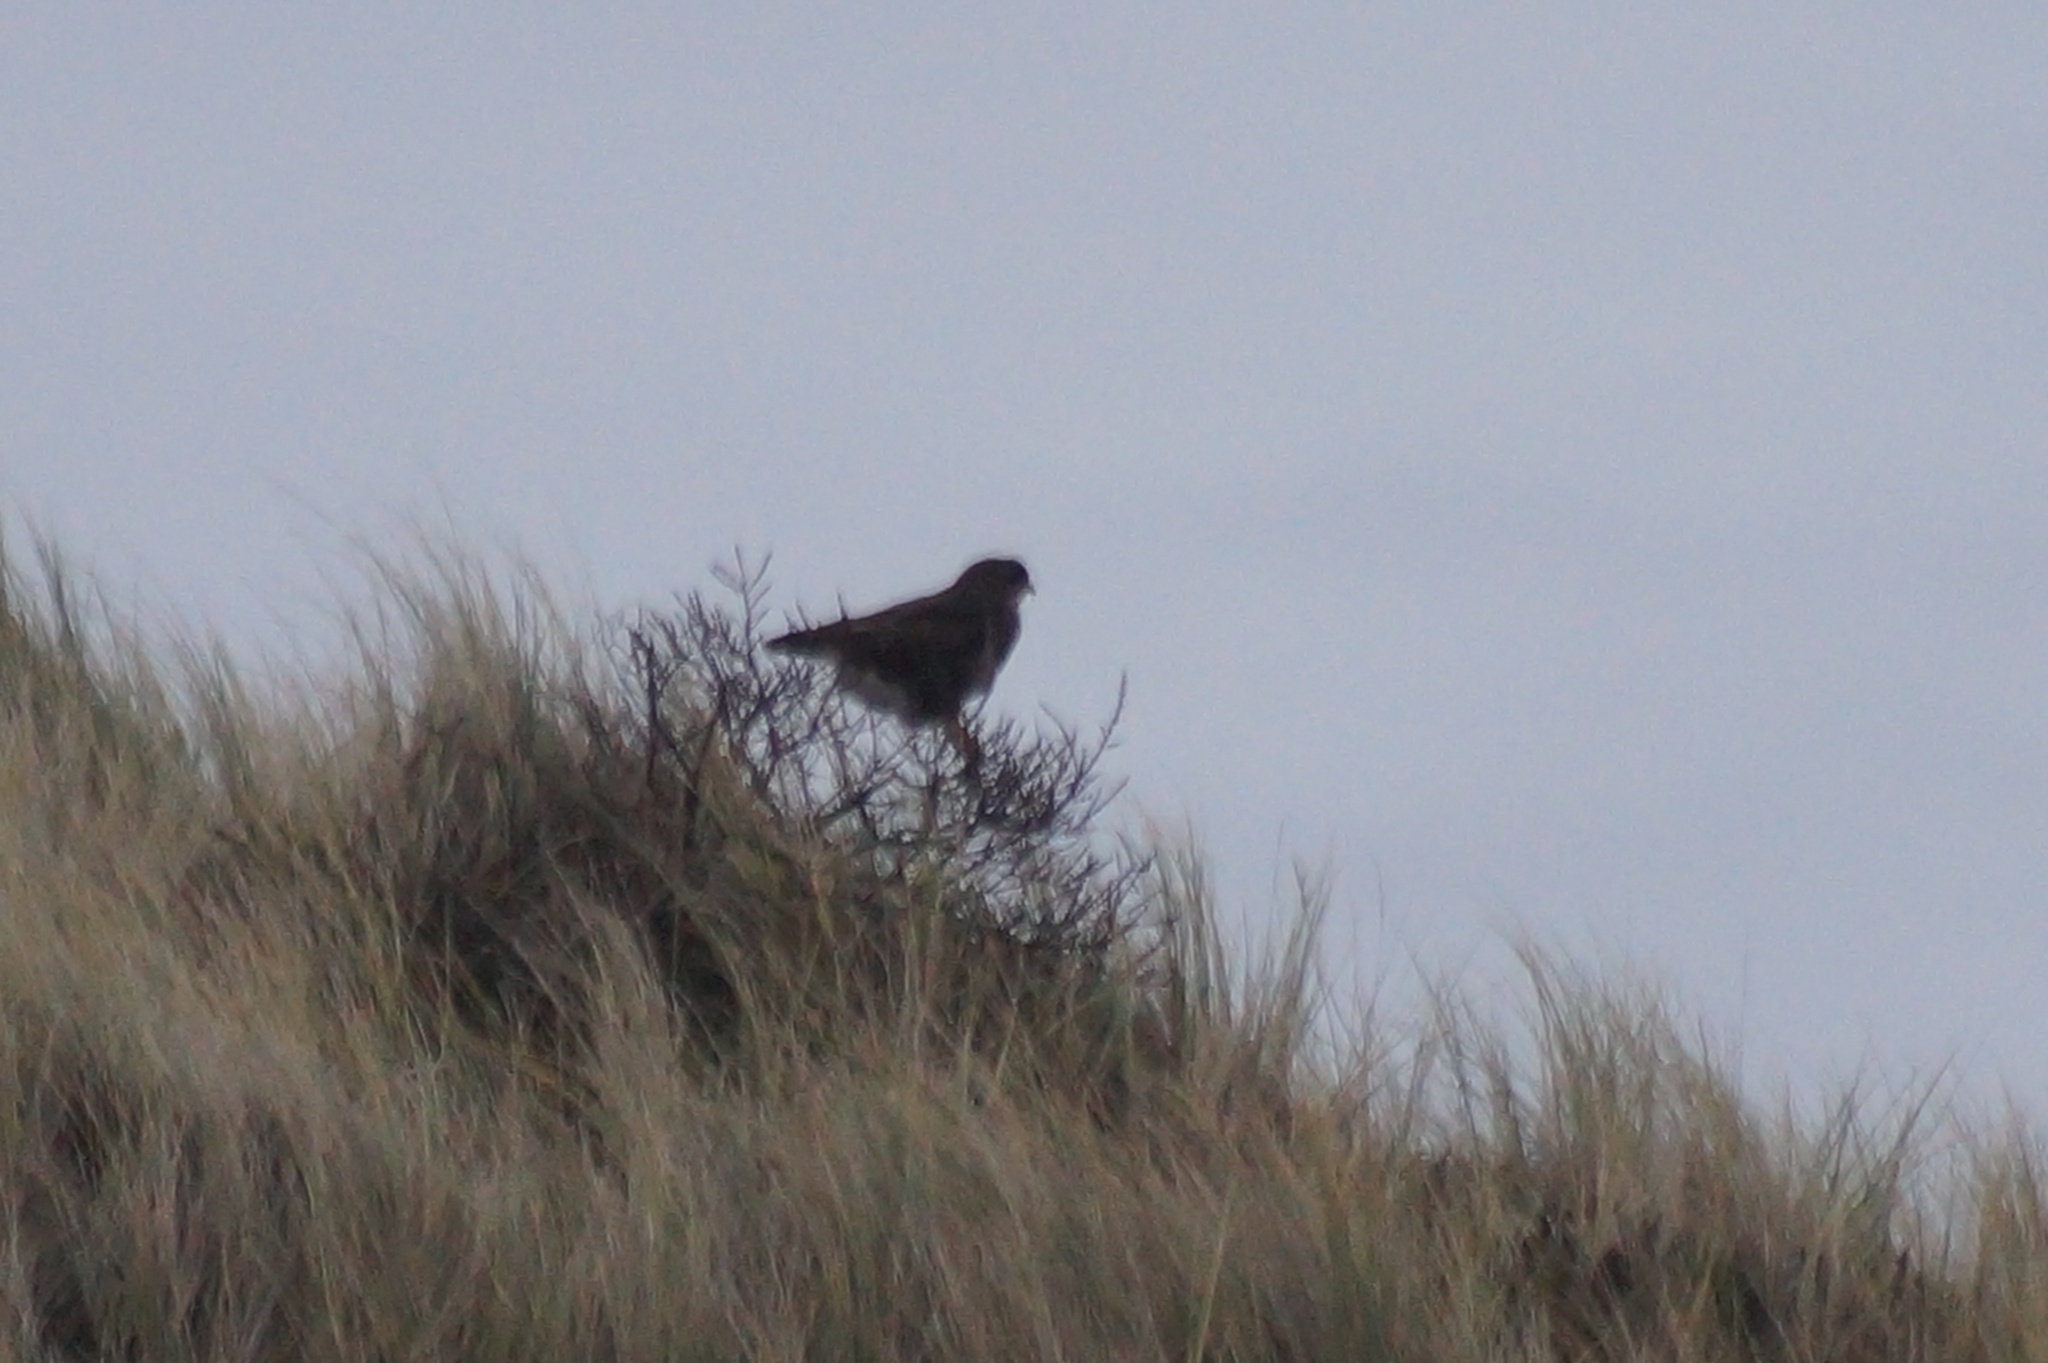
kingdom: Animalia
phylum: Chordata
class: Aves
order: Accipitriformes
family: Accipitridae
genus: Buteo
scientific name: Buteo buteo
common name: Common buzzard
